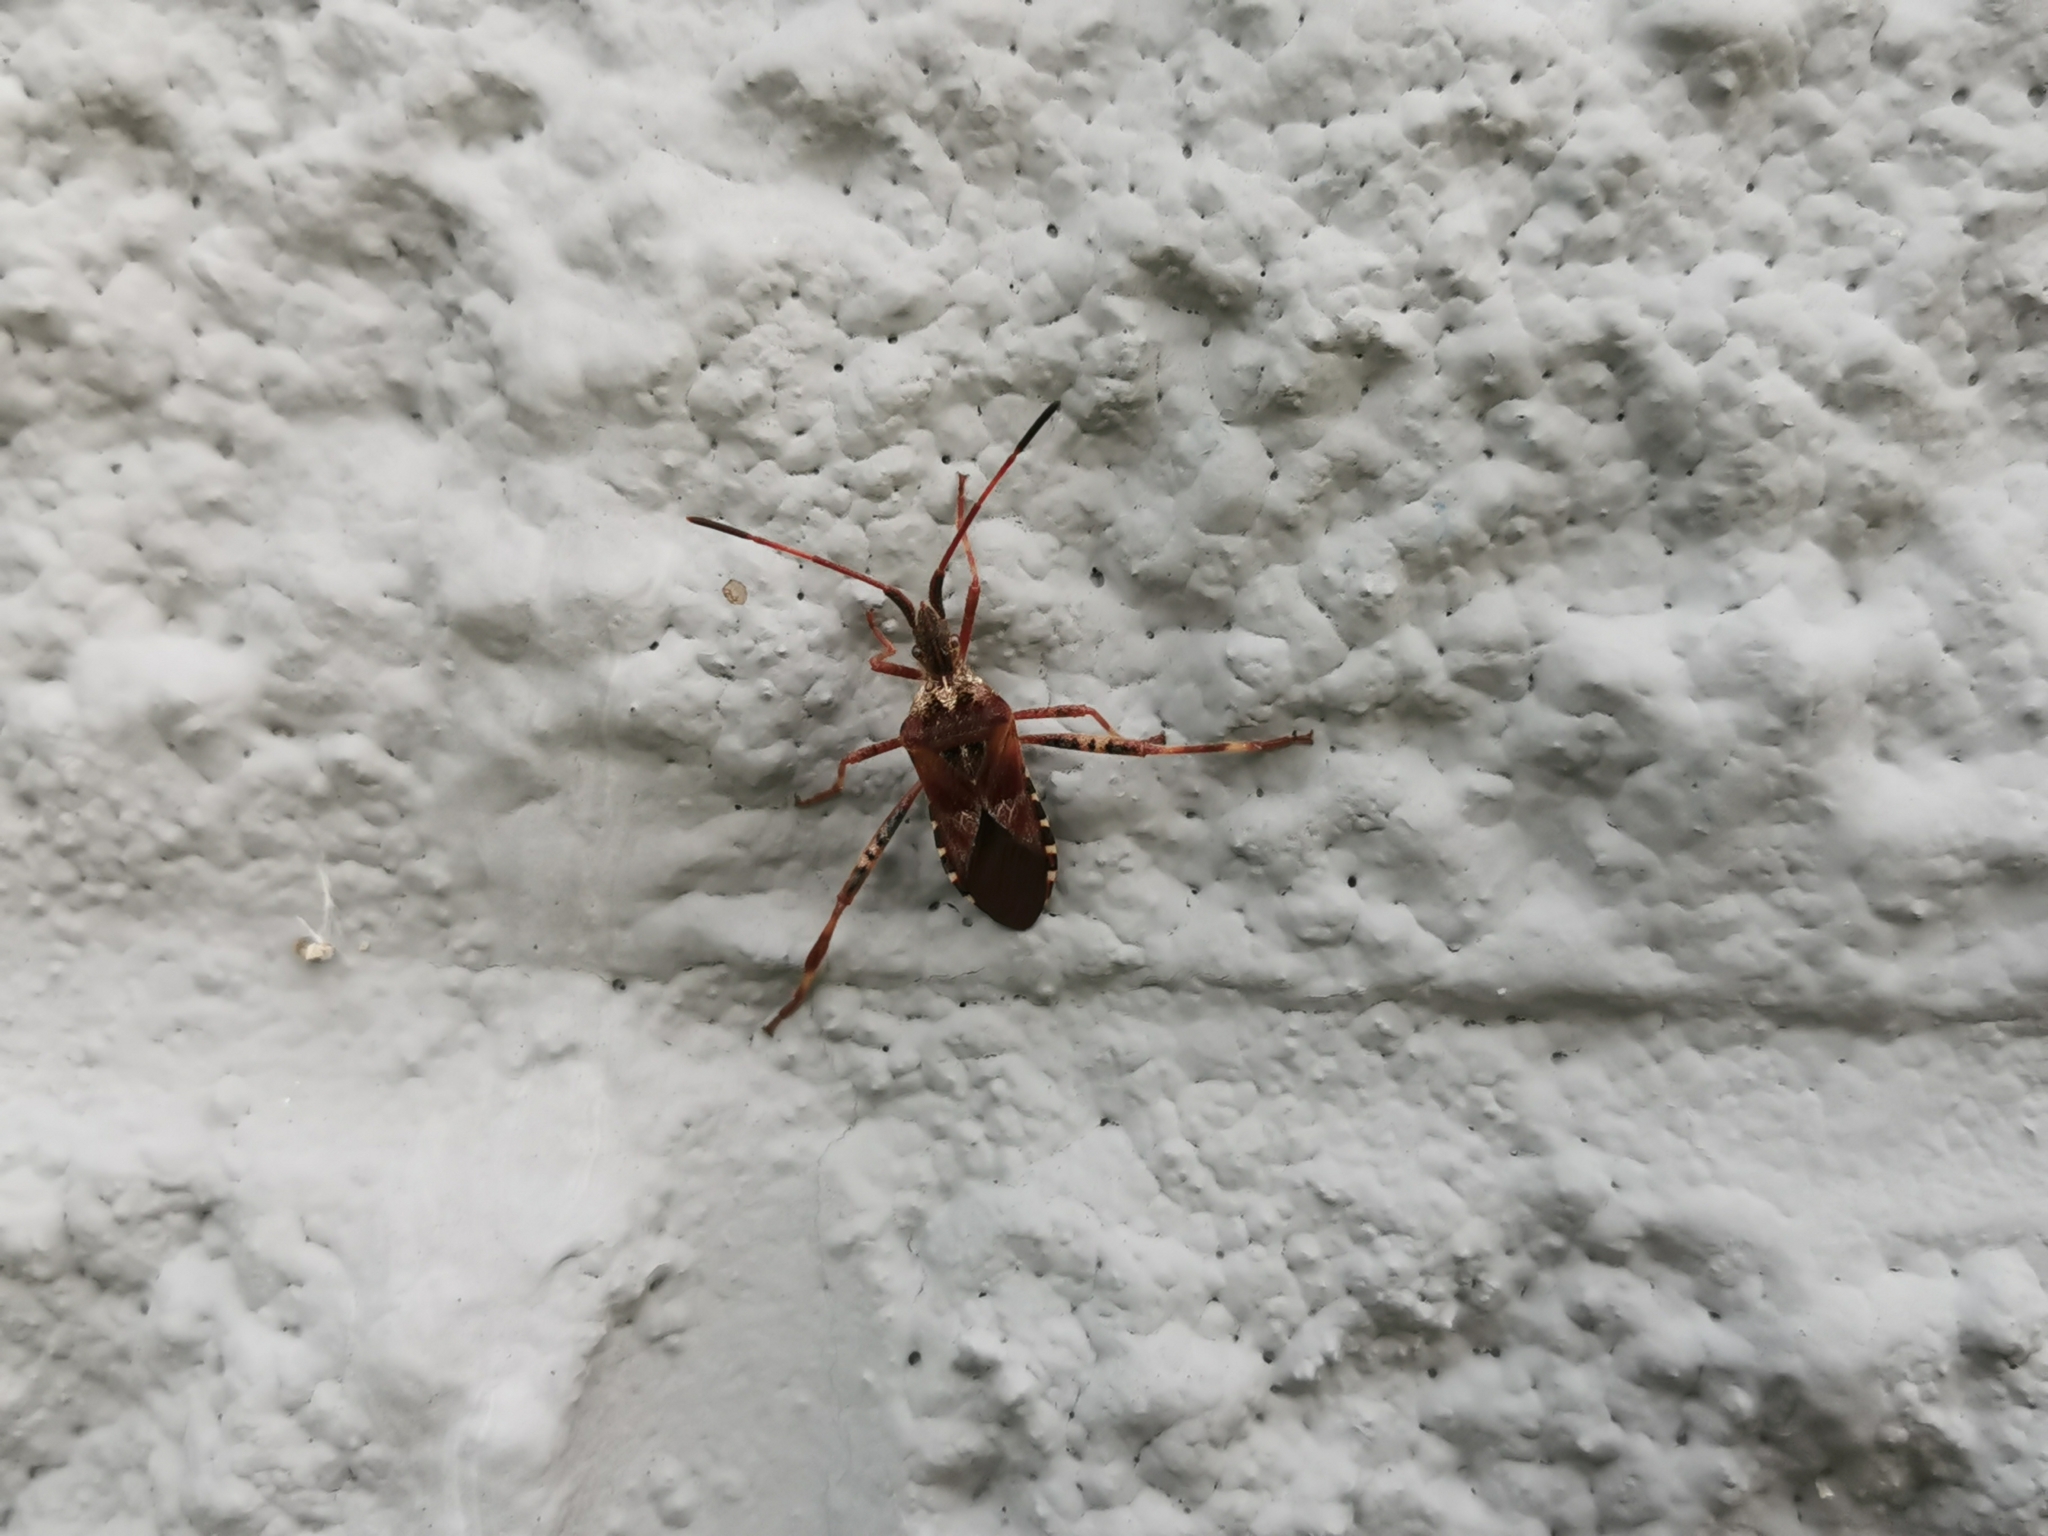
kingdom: Animalia
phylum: Arthropoda
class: Insecta
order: Hemiptera
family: Coreidae
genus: Leptoglossus
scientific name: Leptoglossus occidentalis
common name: Western conifer-seed bug
